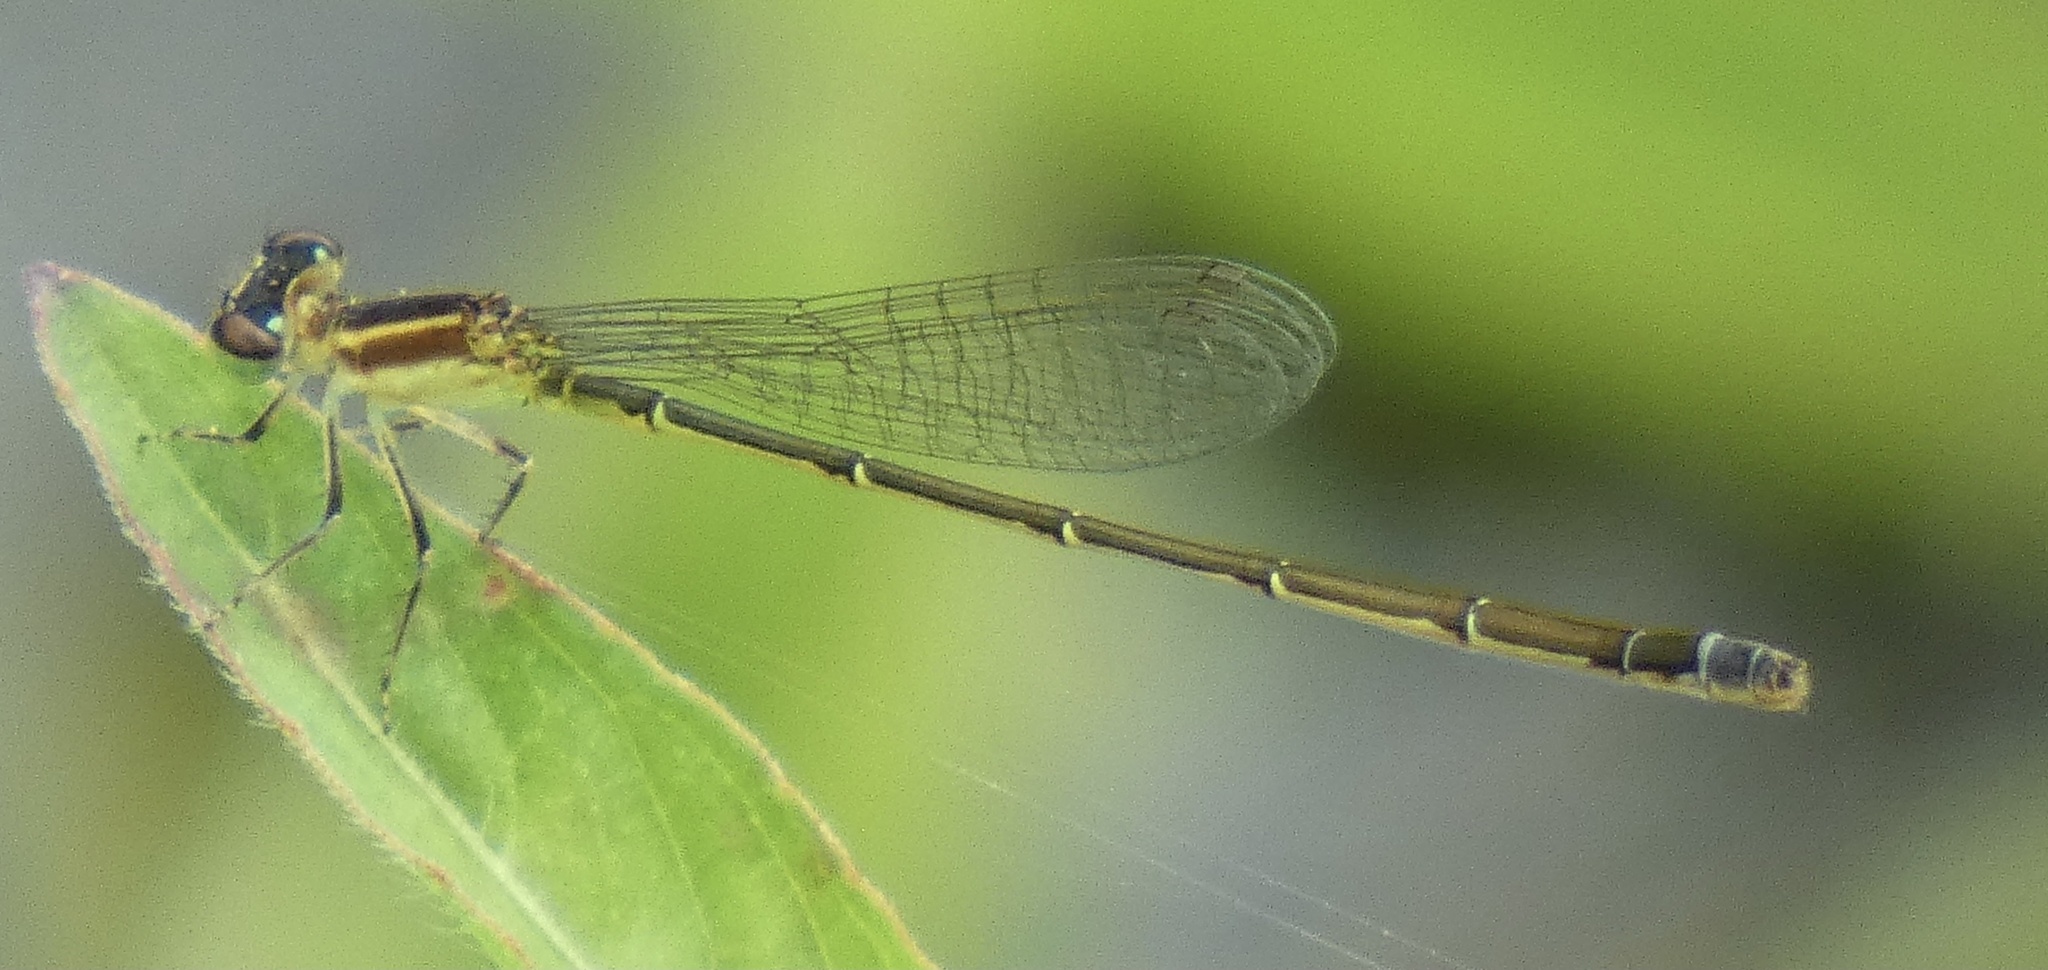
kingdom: Animalia
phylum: Arthropoda
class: Insecta
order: Odonata
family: Coenagrionidae
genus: Ischnura
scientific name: Ischnura capreolus
